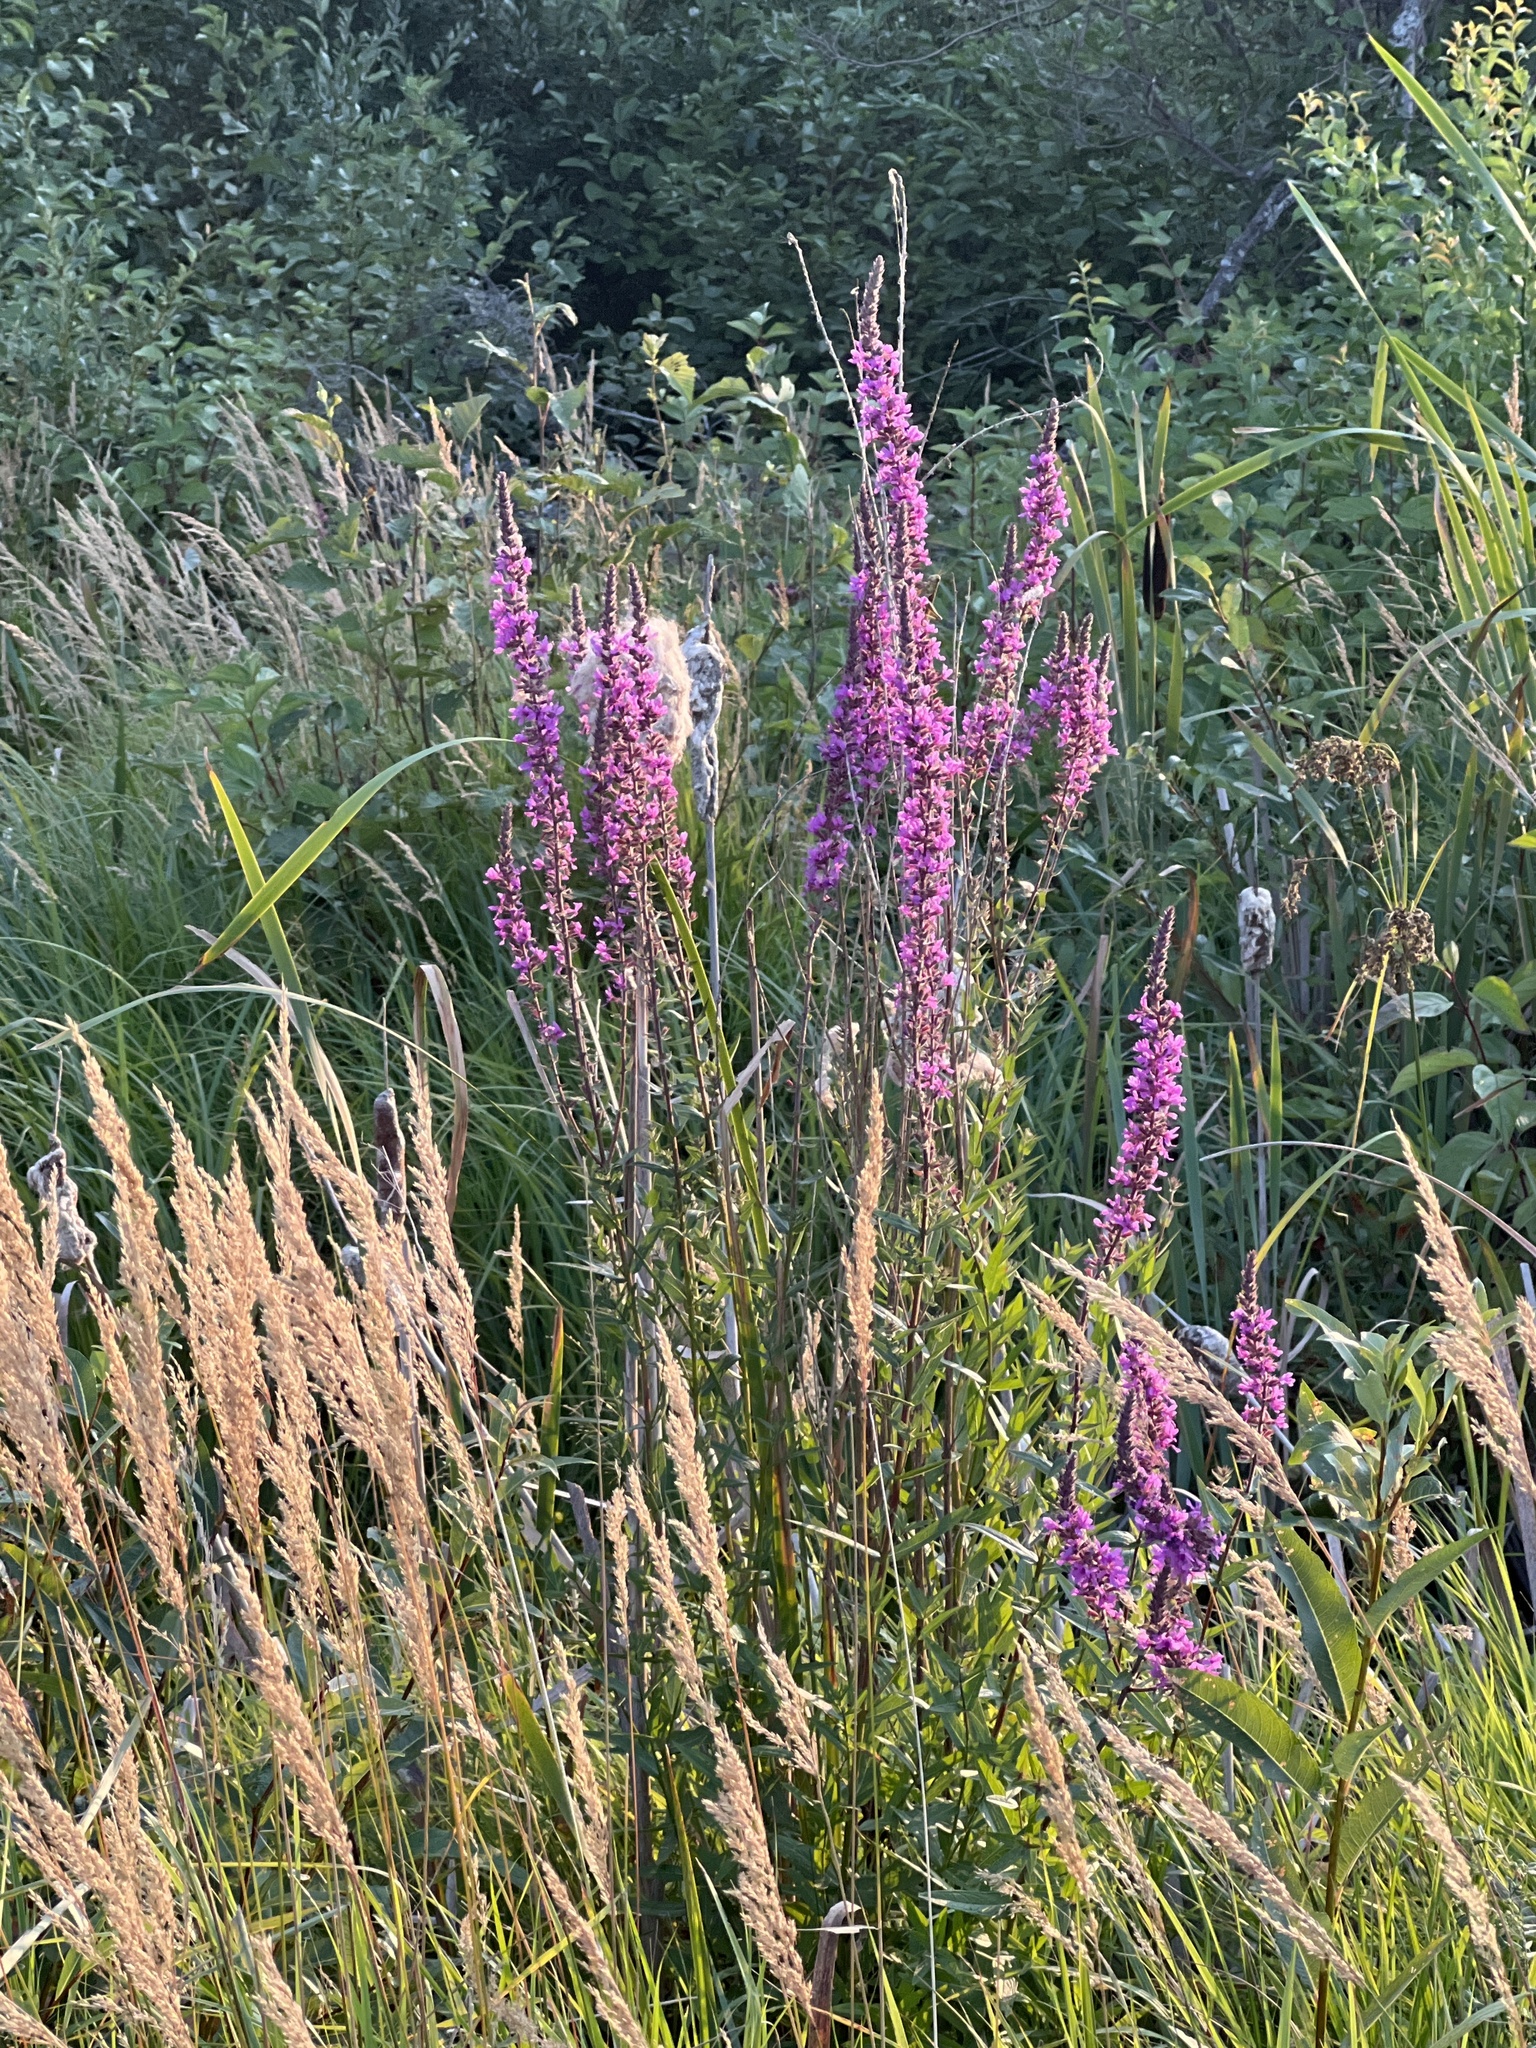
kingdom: Plantae
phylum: Tracheophyta
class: Magnoliopsida
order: Myrtales
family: Lythraceae
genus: Lythrum
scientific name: Lythrum salicaria
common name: Purple loosestrife
